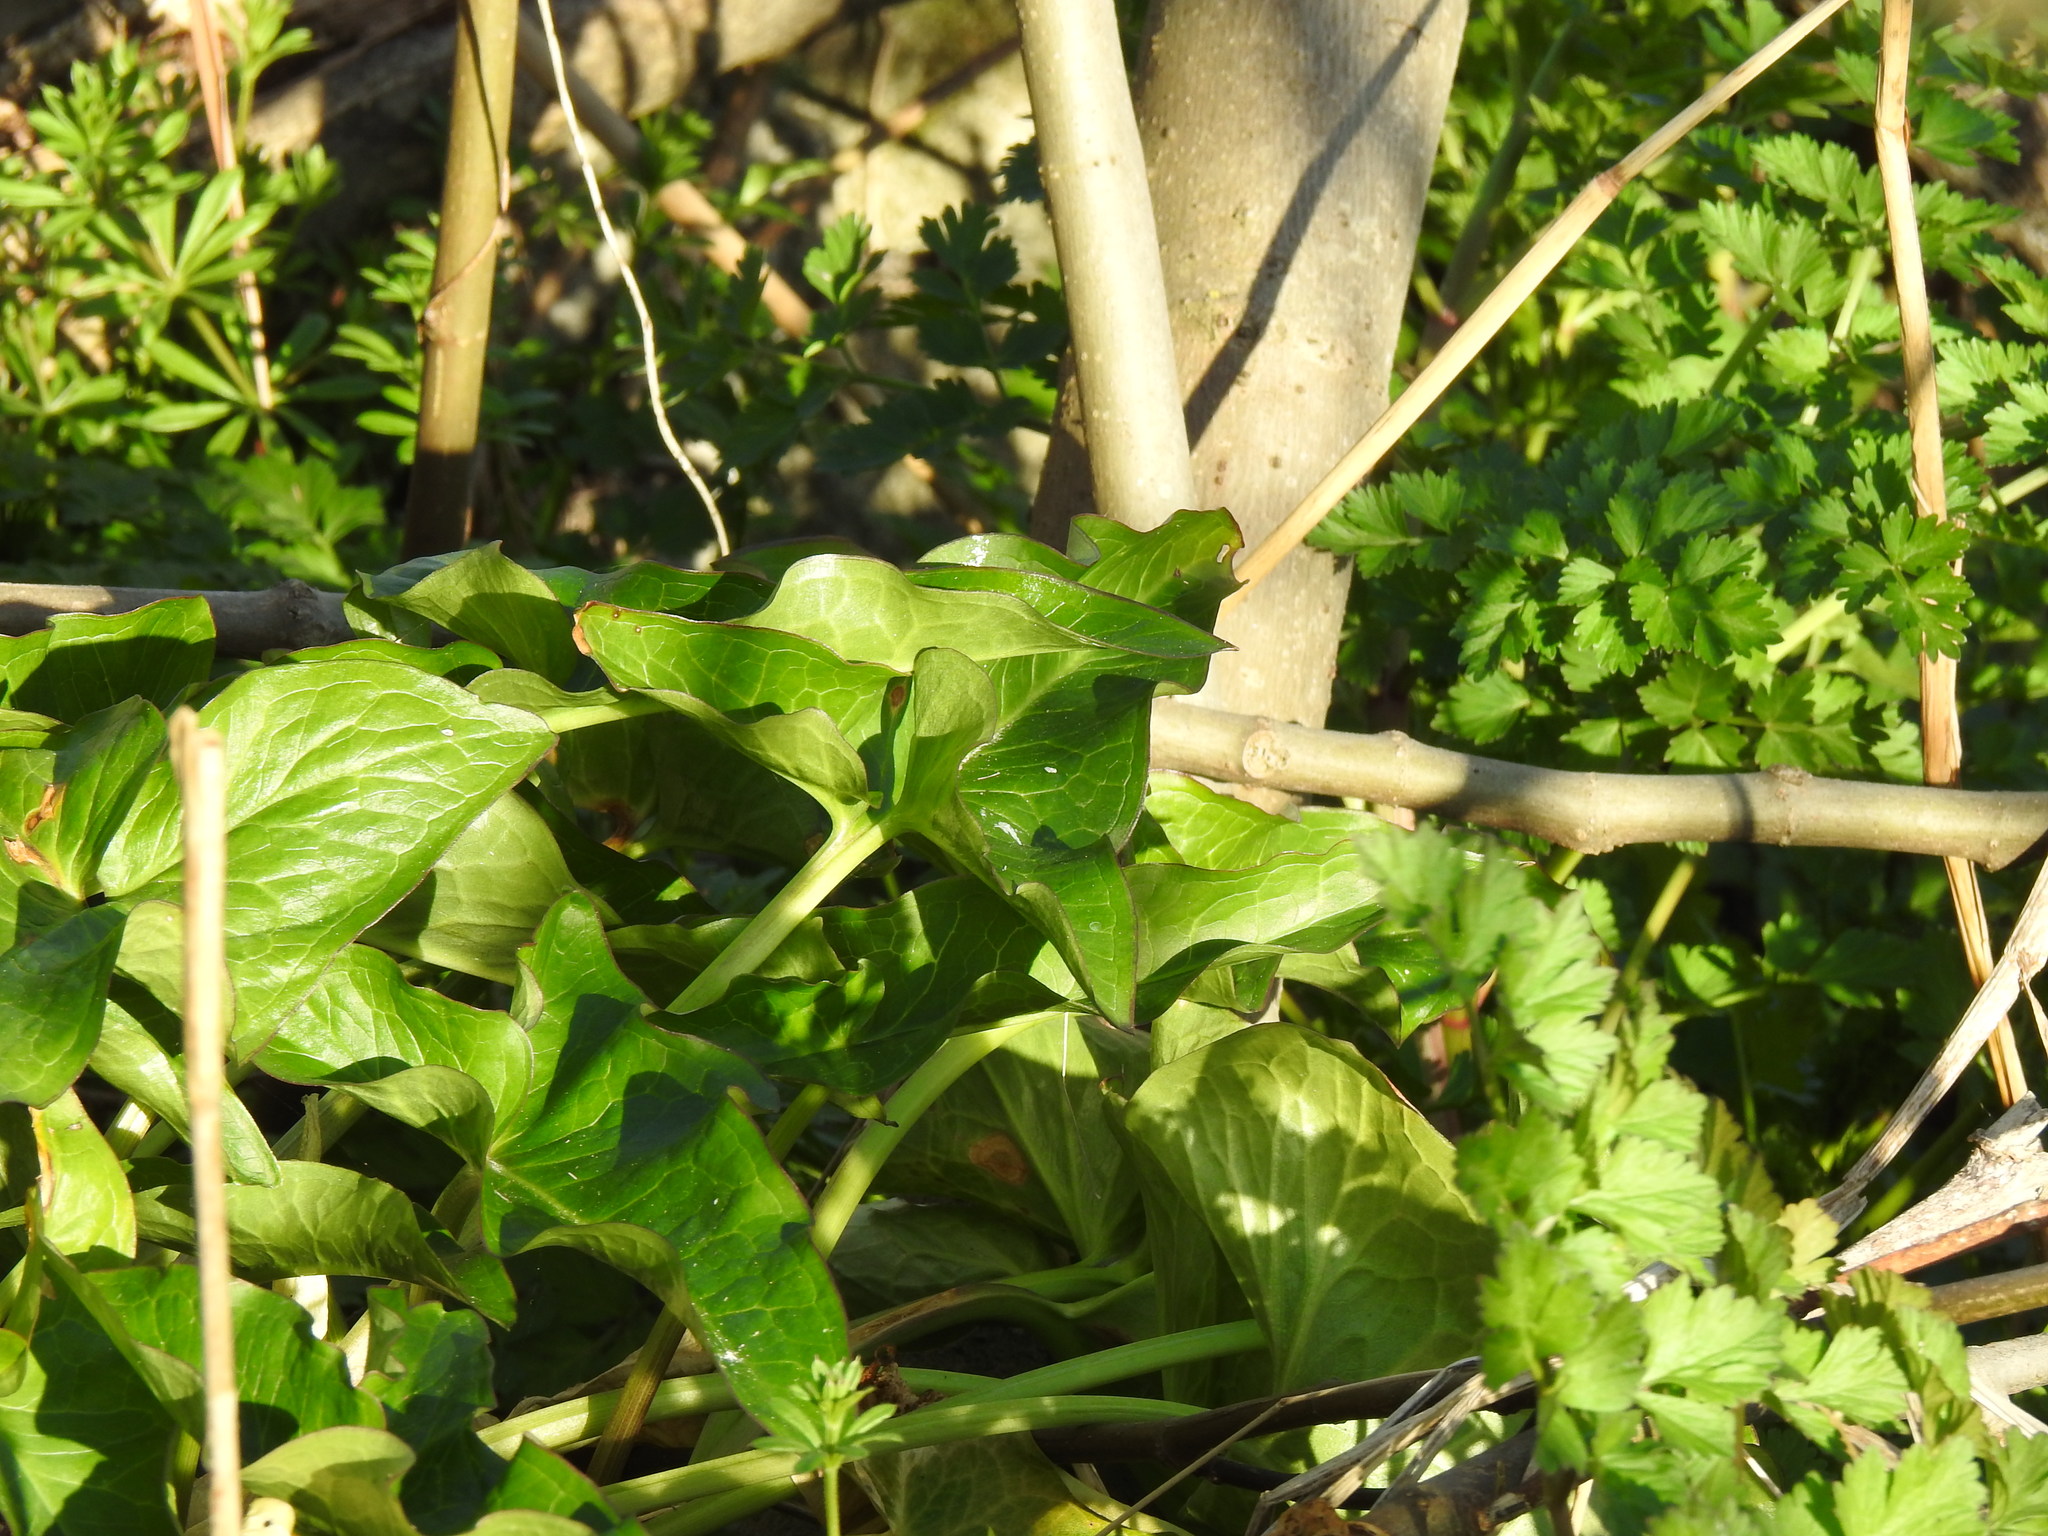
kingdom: Plantae
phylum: Tracheophyta
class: Liliopsida
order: Alismatales
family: Araceae
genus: Arum
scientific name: Arum italicum
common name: Italian lords-and-ladies
